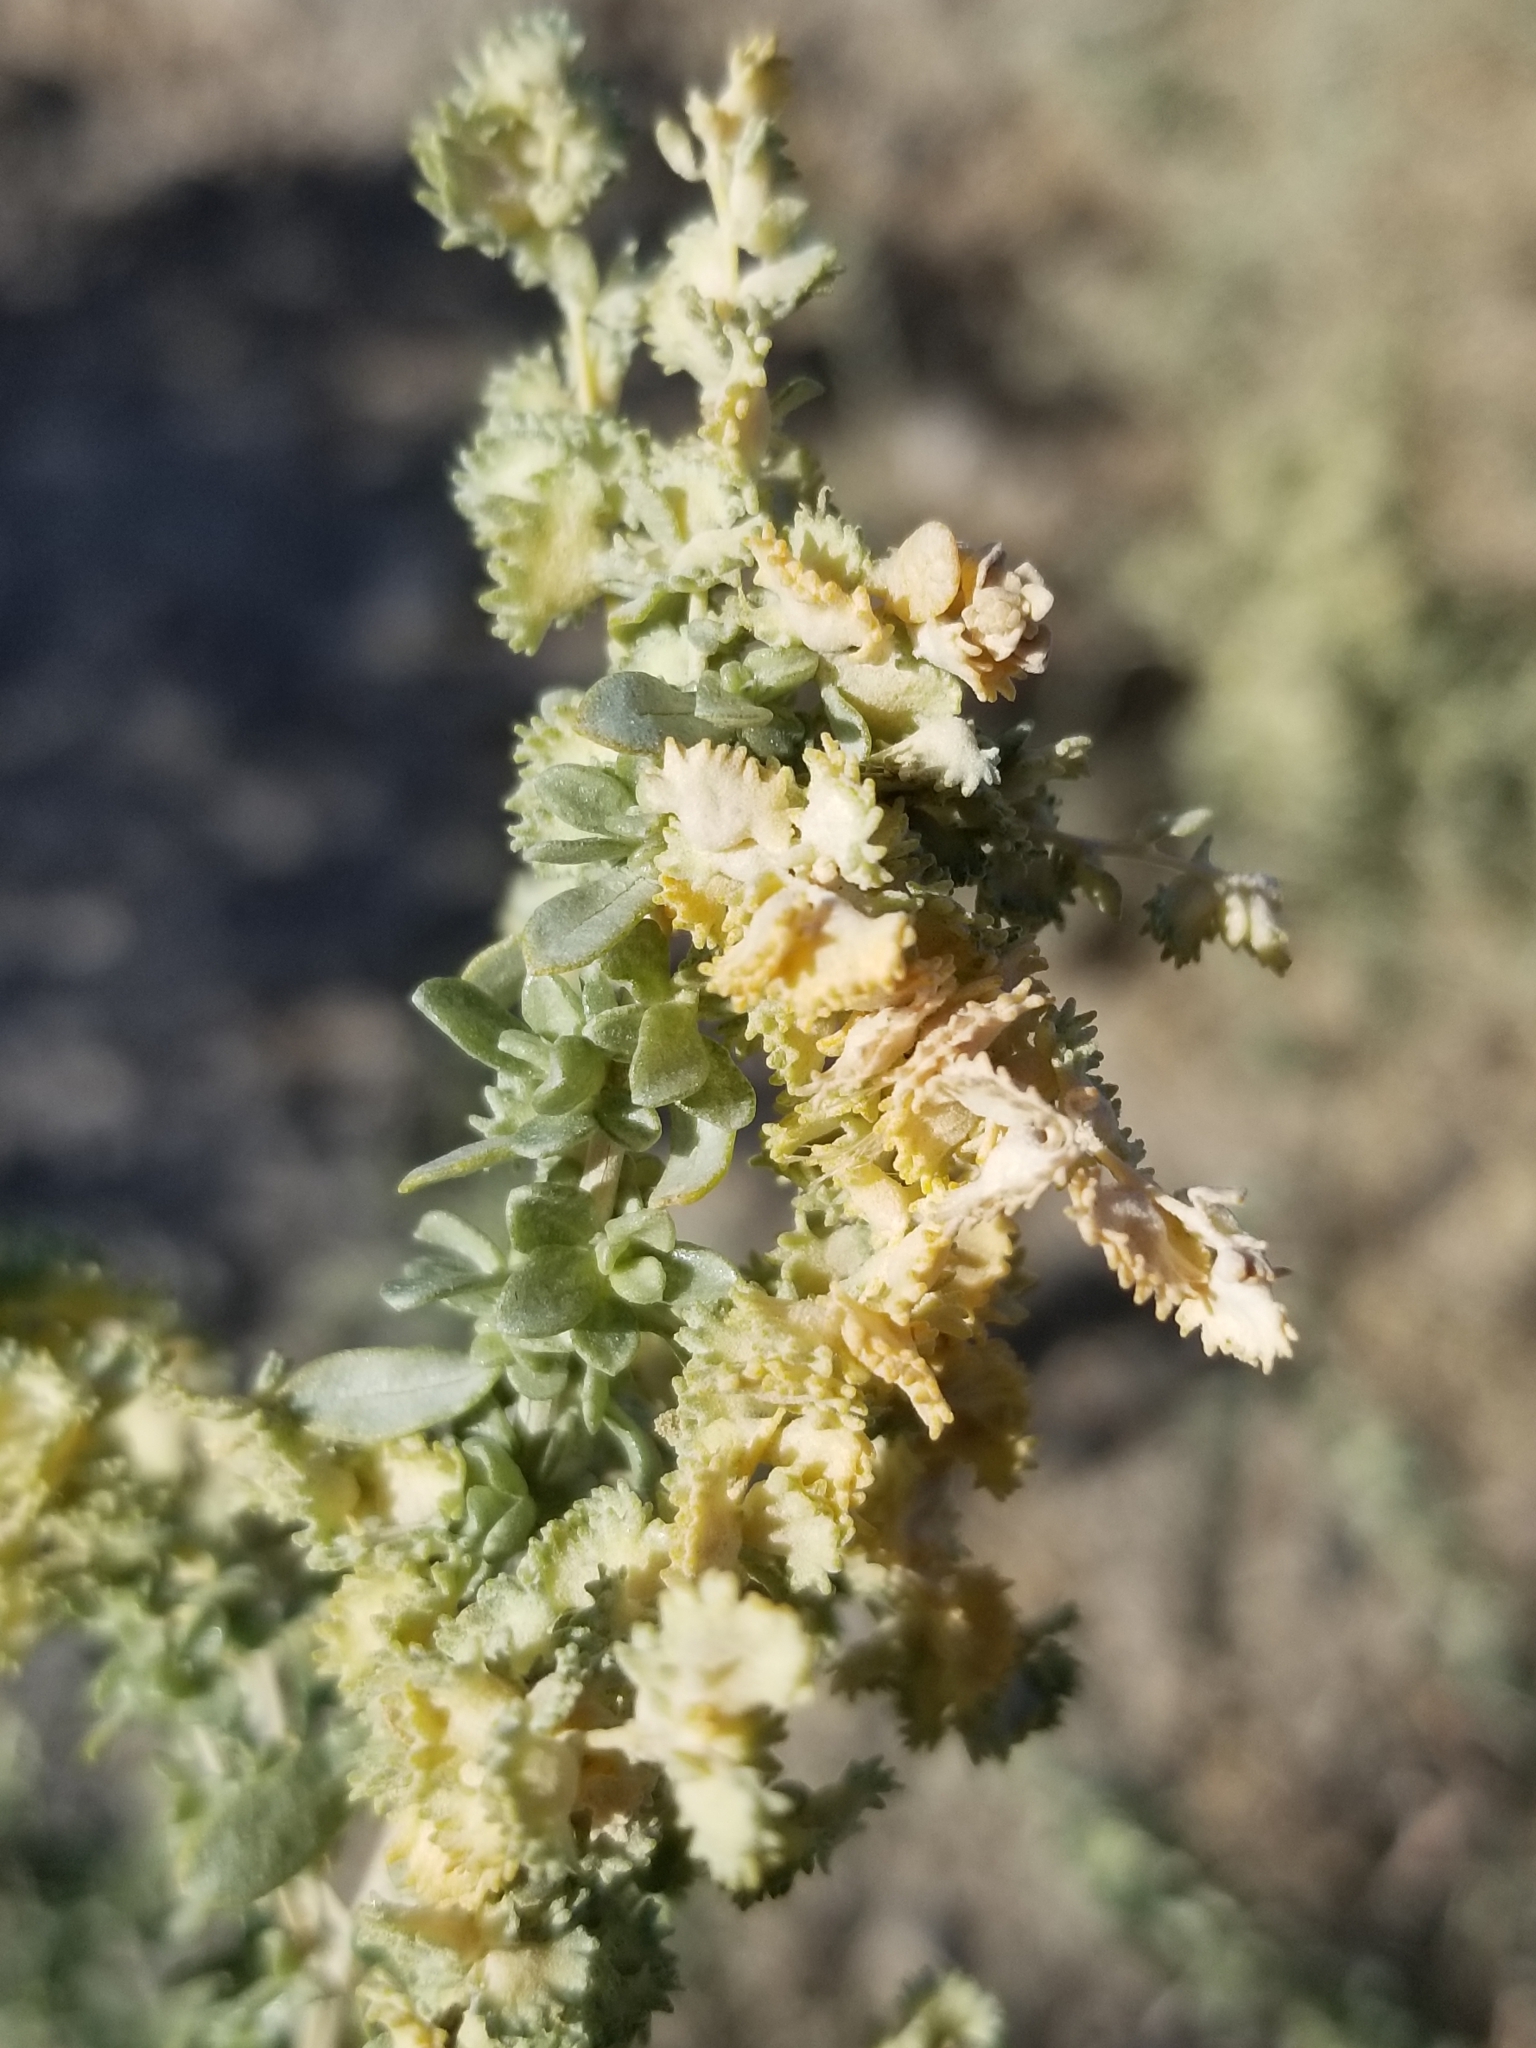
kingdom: Plantae
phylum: Tracheophyta
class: Magnoliopsida
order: Caryophyllales
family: Amaranthaceae
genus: Atriplex
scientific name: Atriplex polycarpa
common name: Desert saltbush
